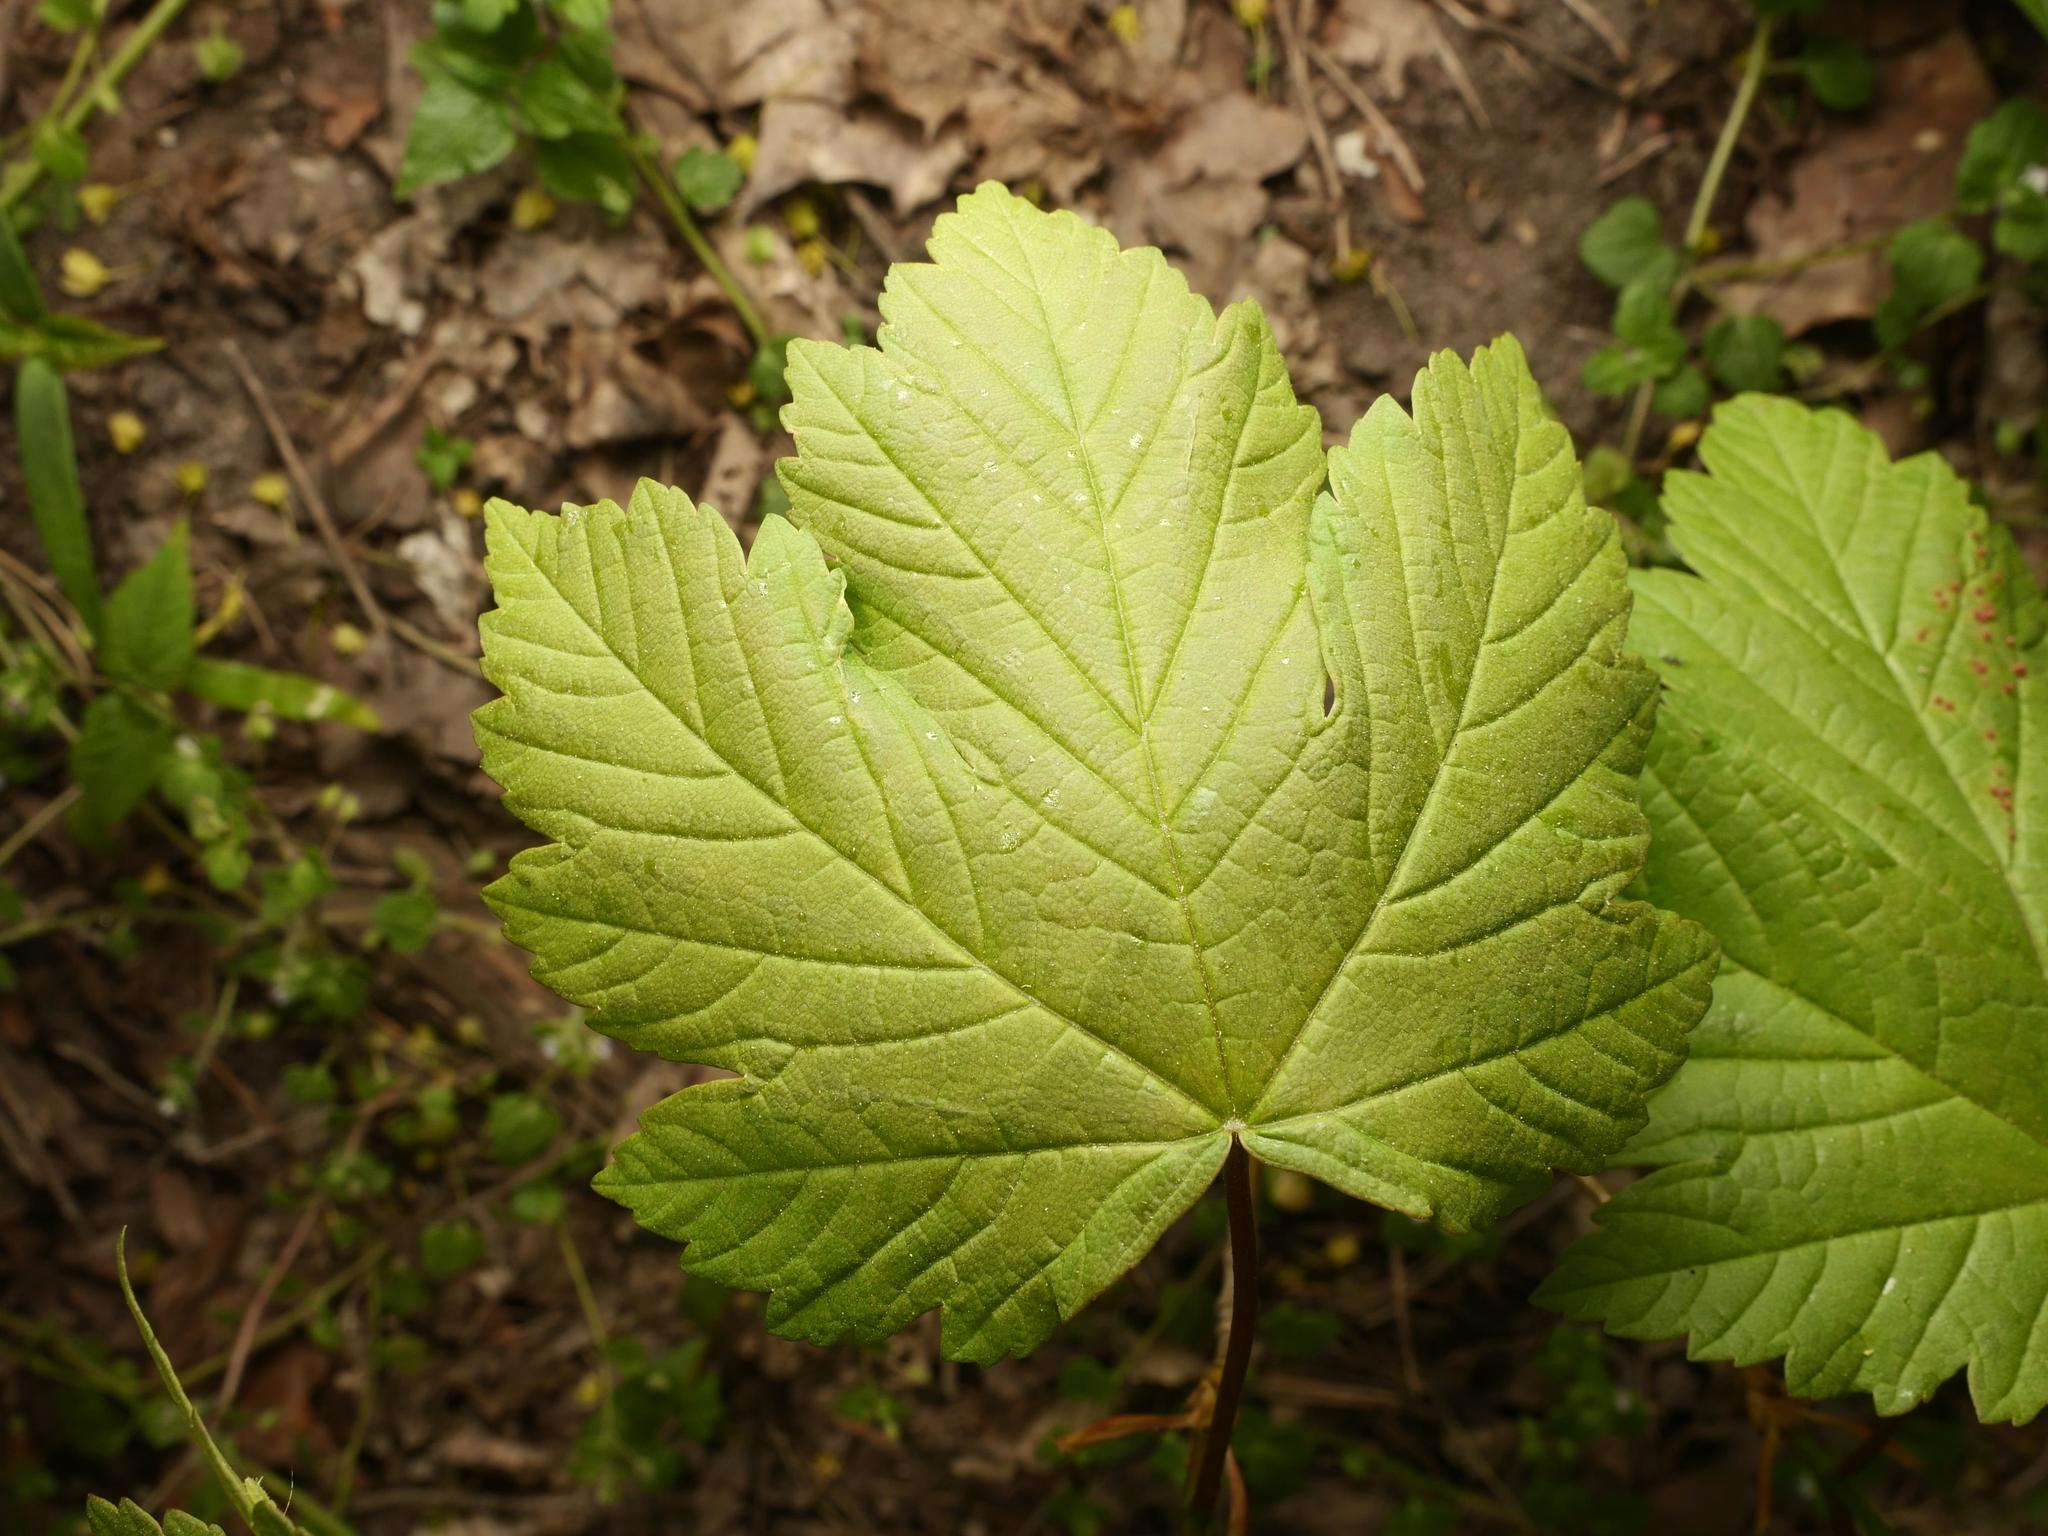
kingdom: Plantae
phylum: Tracheophyta
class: Magnoliopsida
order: Sapindales
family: Sapindaceae
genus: Acer
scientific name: Acer pseudoplatanus
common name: Sycamore
